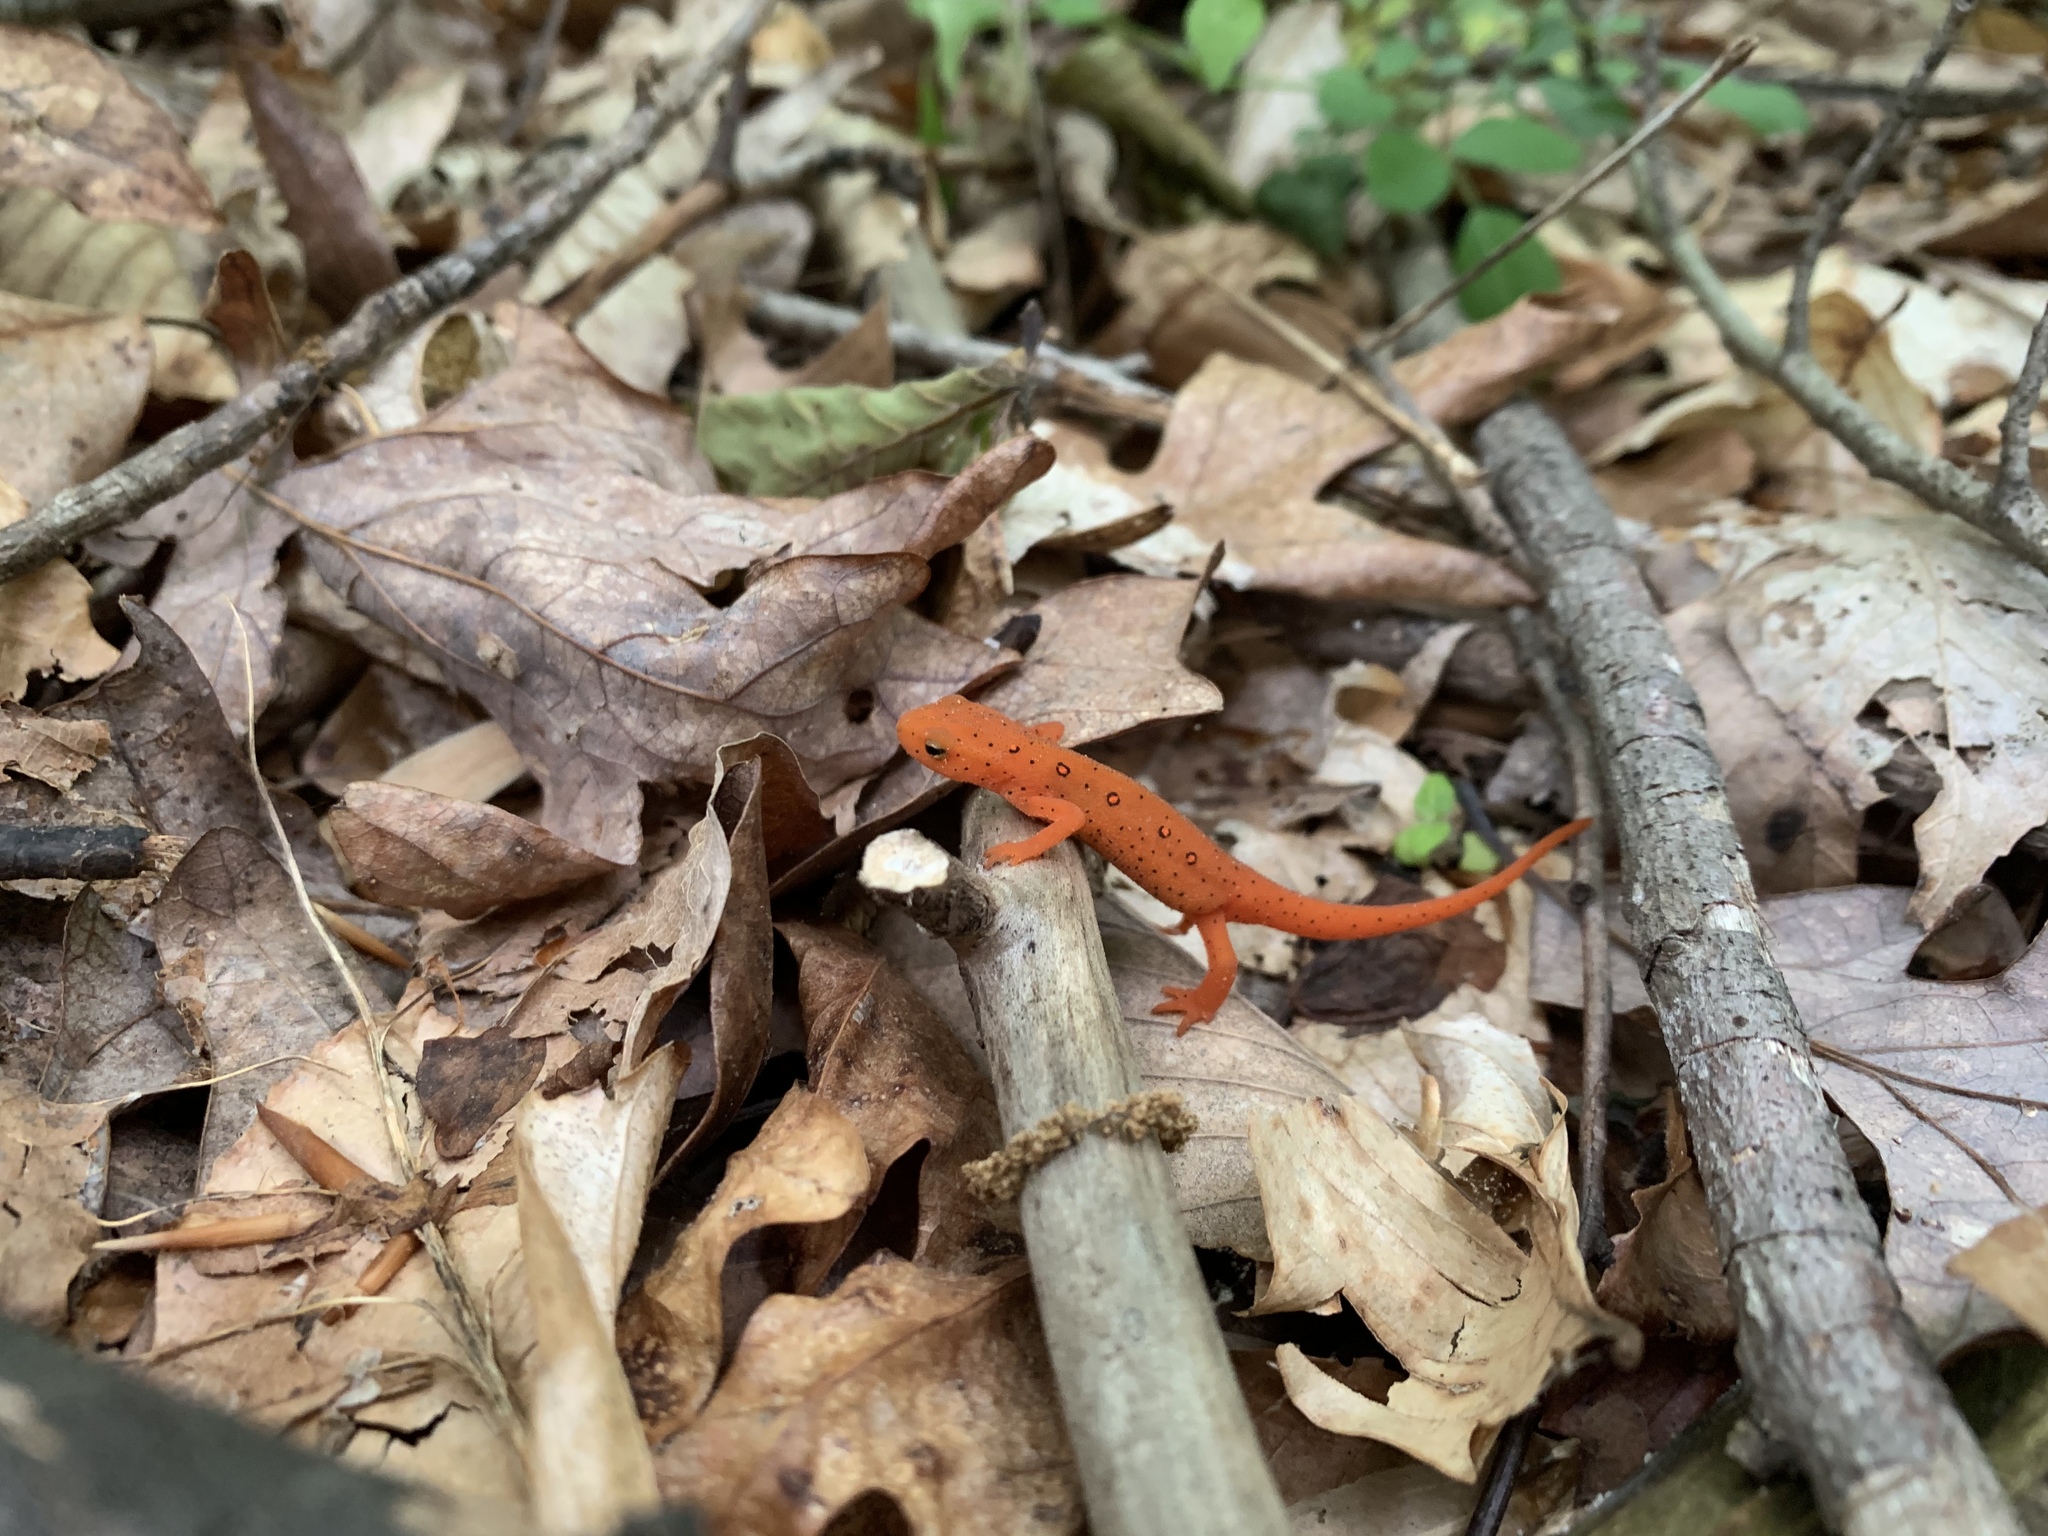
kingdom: Animalia
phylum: Chordata
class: Amphibia
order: Caudata
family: Salamandridae
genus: Notophthalmus
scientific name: Notophthalmus viridescens
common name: Eastern newt
